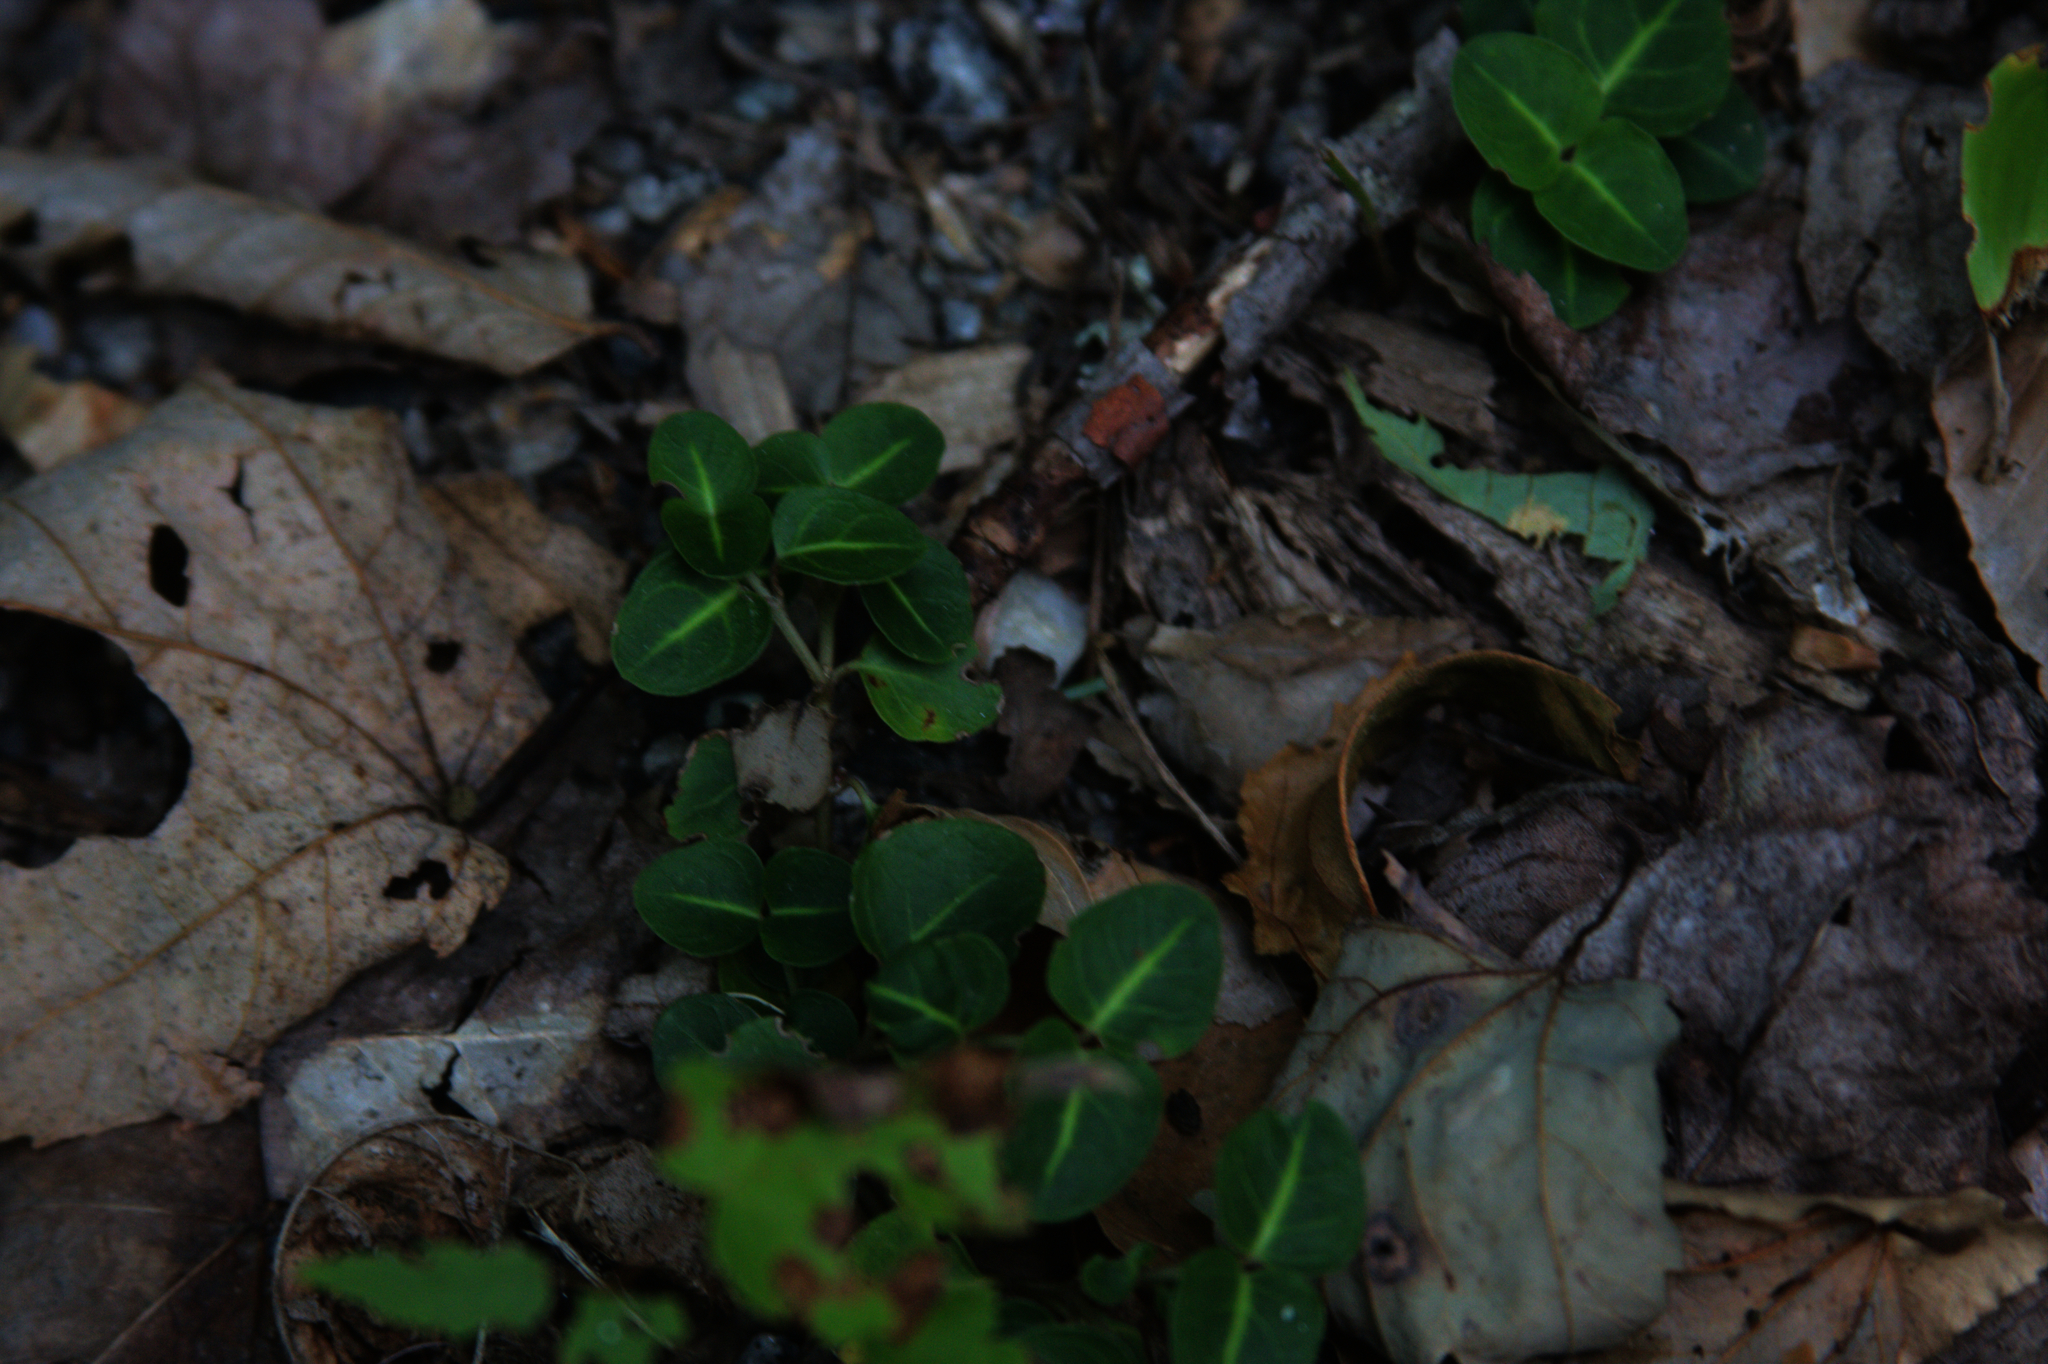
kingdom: Plantae
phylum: Tracheophyta
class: Magnoliopsida
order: Gentianales
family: Rubiaceae
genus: Mitchella
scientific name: Mitchella repens
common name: Partridge-berry
